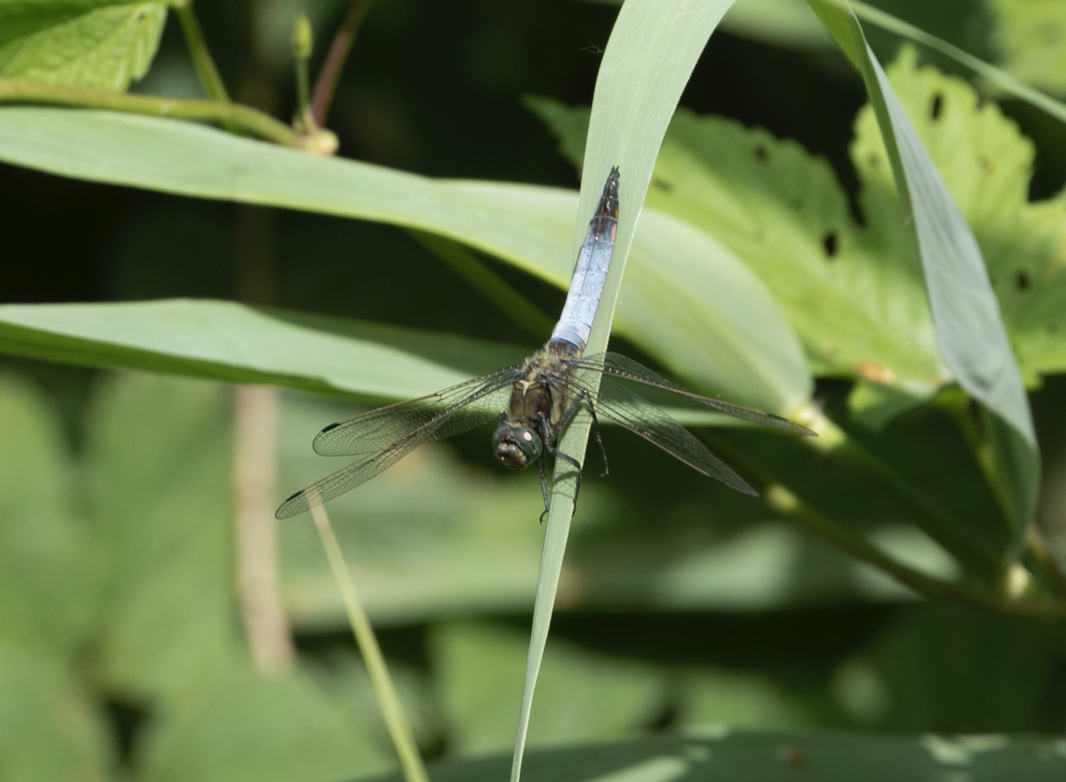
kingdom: Animalia
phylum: Arthropoda
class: Insecta
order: Odonata
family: Libellulidae
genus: Orthetrum
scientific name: Orthetrum cancellatum
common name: Black-tailed skimmer
